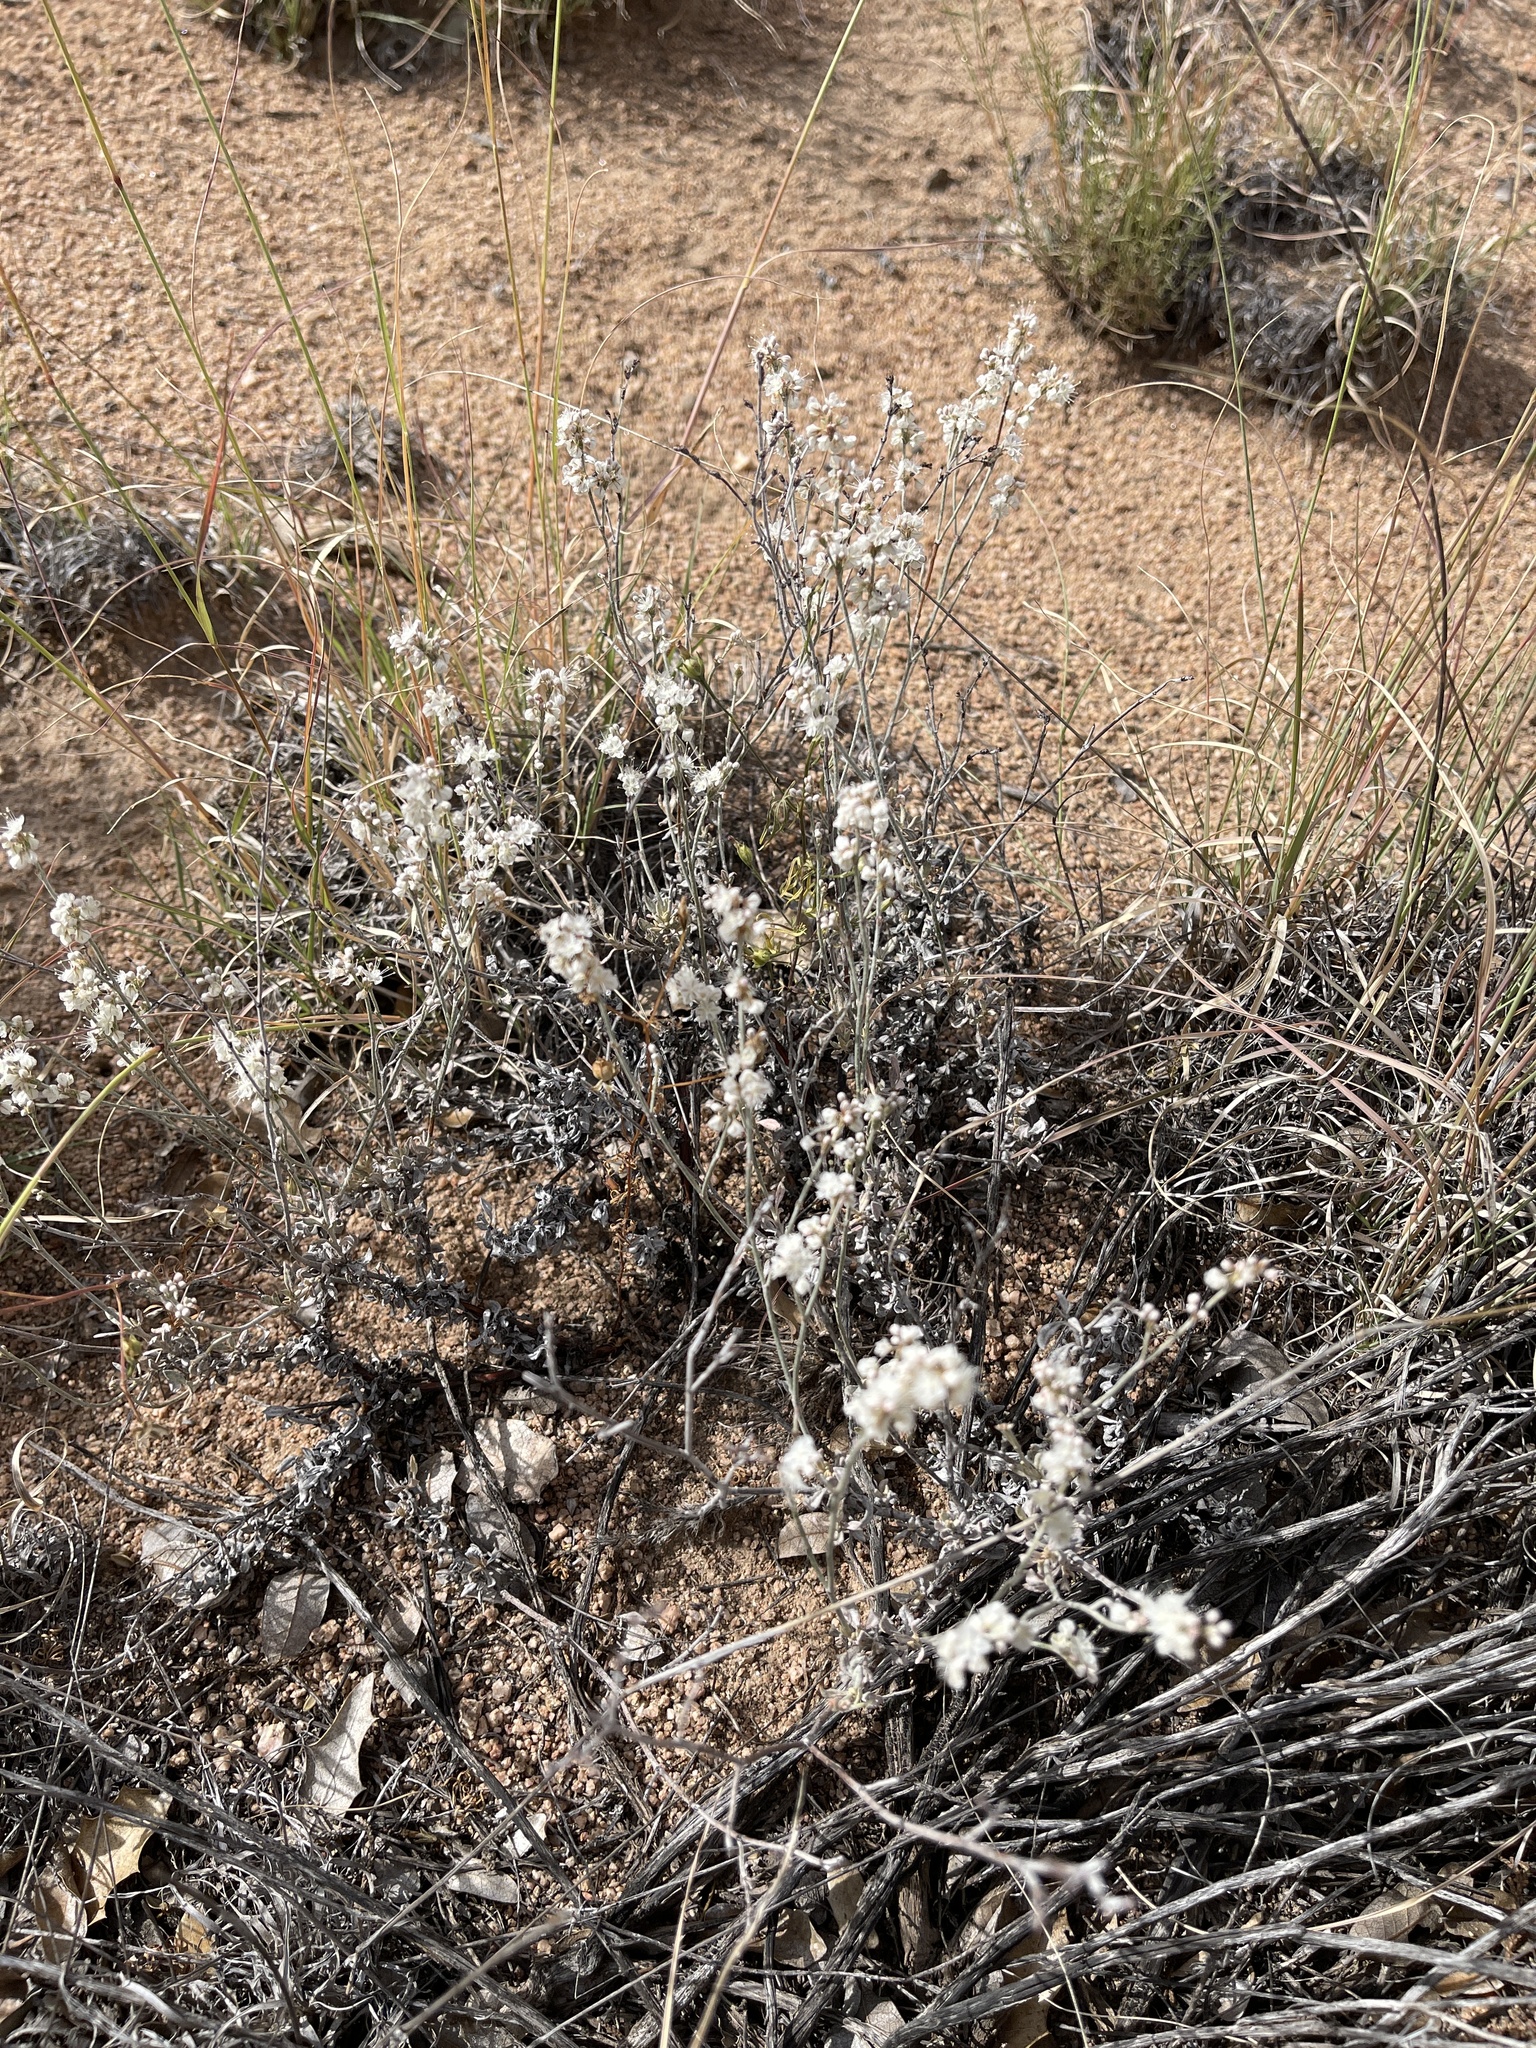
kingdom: Plantae
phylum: Tracheophyta
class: Magnoliopsida
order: Caryophyllales
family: Polygonaceae
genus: Eriogonum
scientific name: Eriogonum wrightii
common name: Bastard-sage
